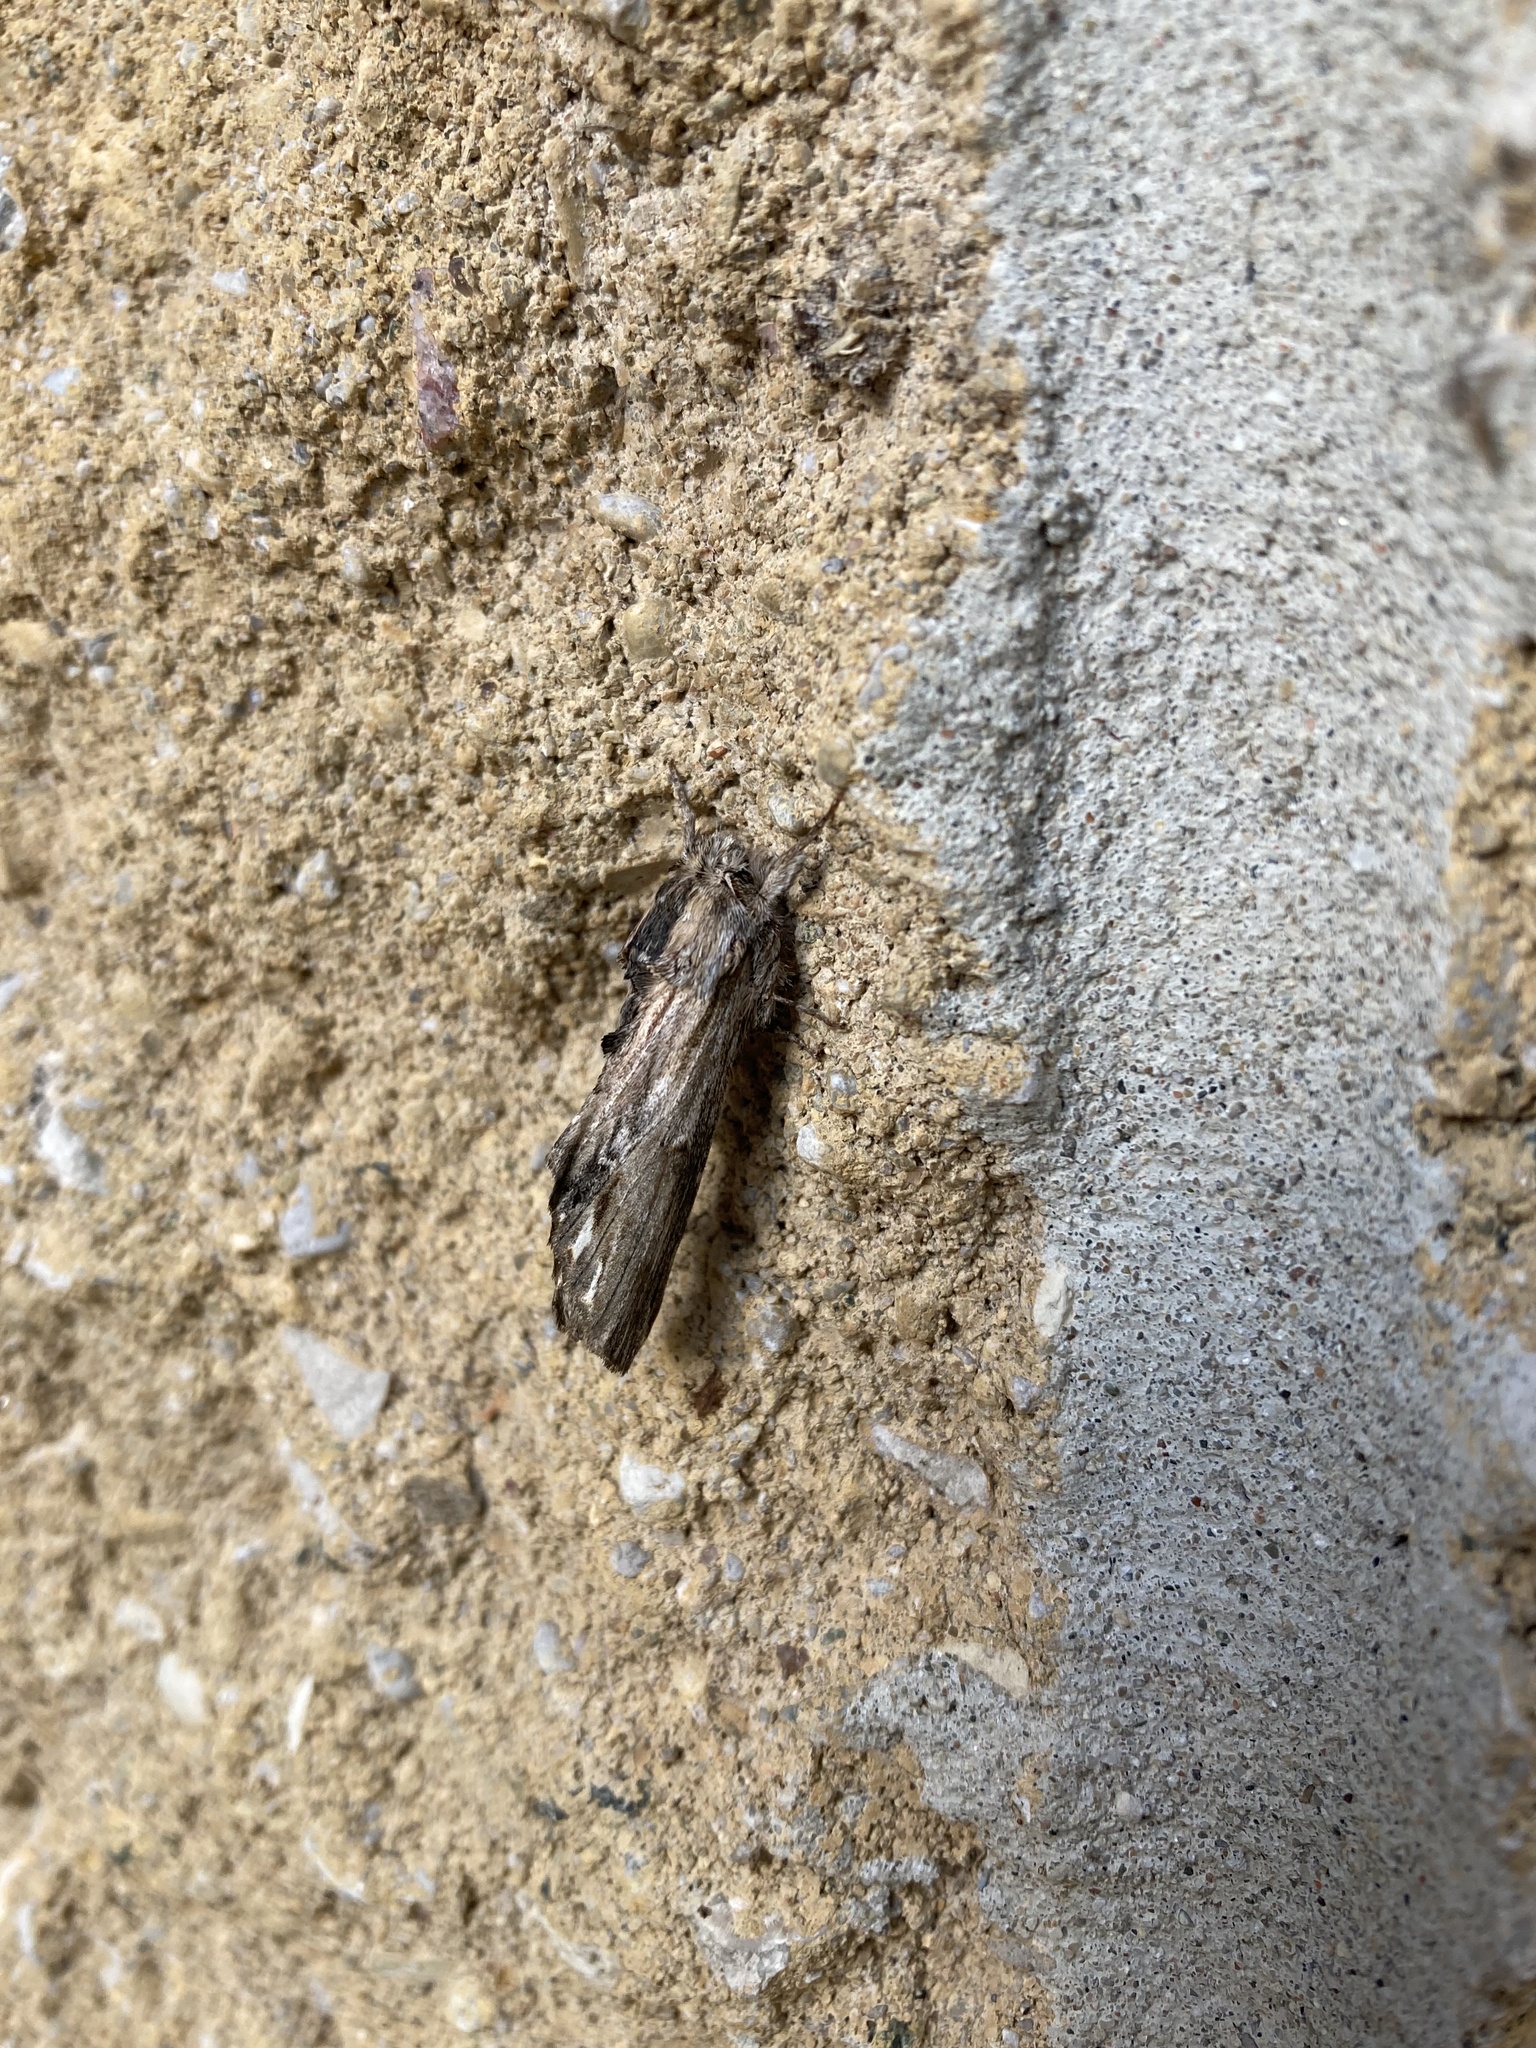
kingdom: Animalia
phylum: Arthropoda
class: Insecta
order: Lepidoptera
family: Notodontidae
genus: Oligocentria
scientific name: Oligocentria Ianassa lignicolor
